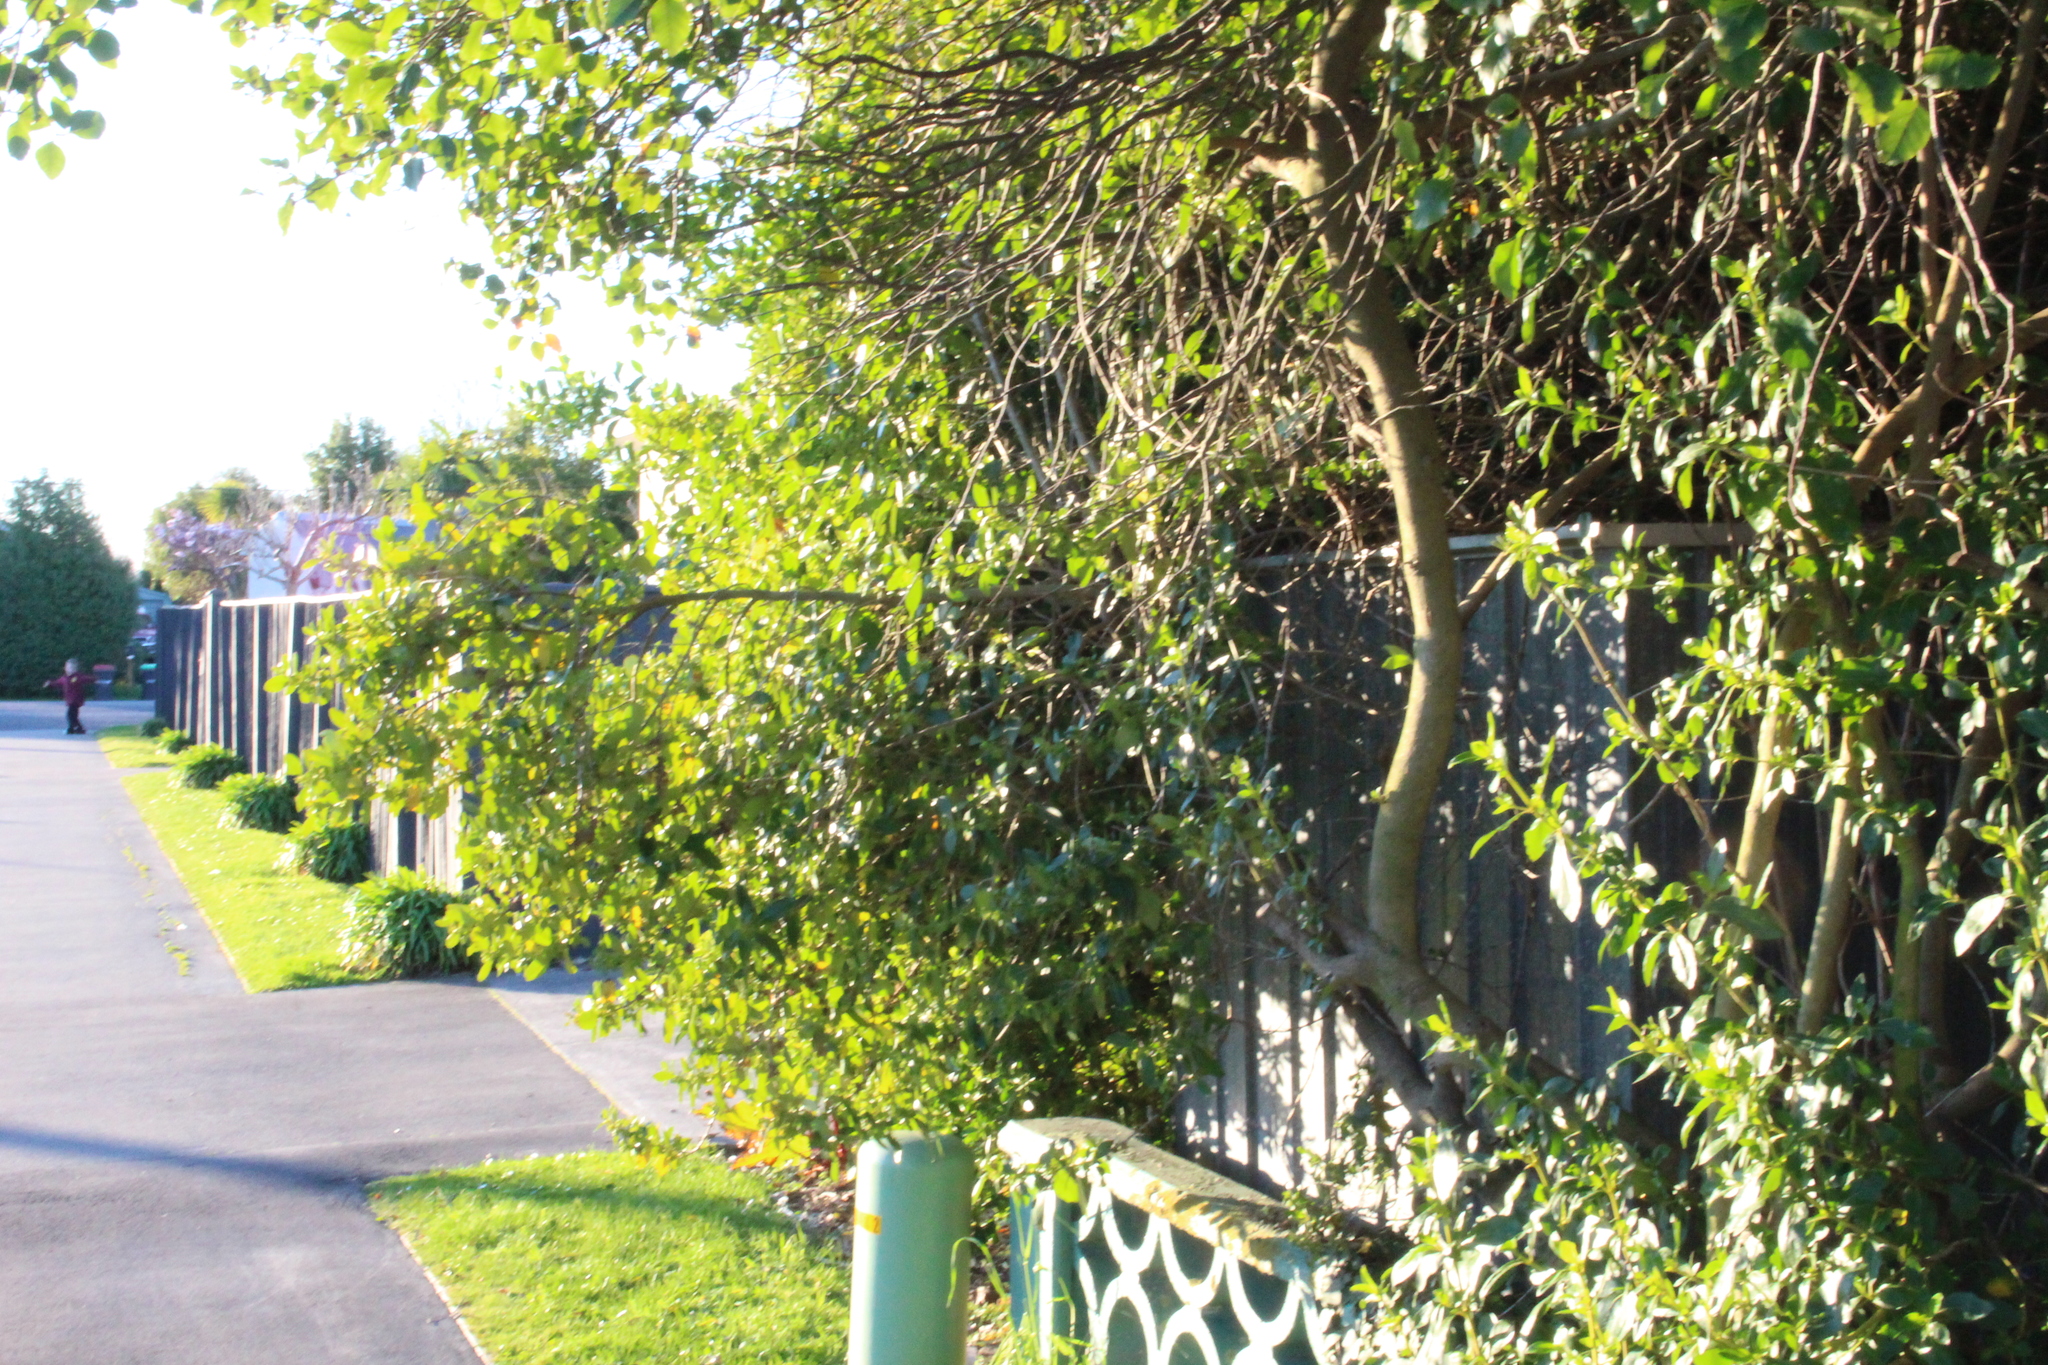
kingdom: Plantae
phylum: Tracheophyta
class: Magnoliopsida
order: Gentianales
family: Rubiaceae
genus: Coprosma
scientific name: Coprosma robusta
